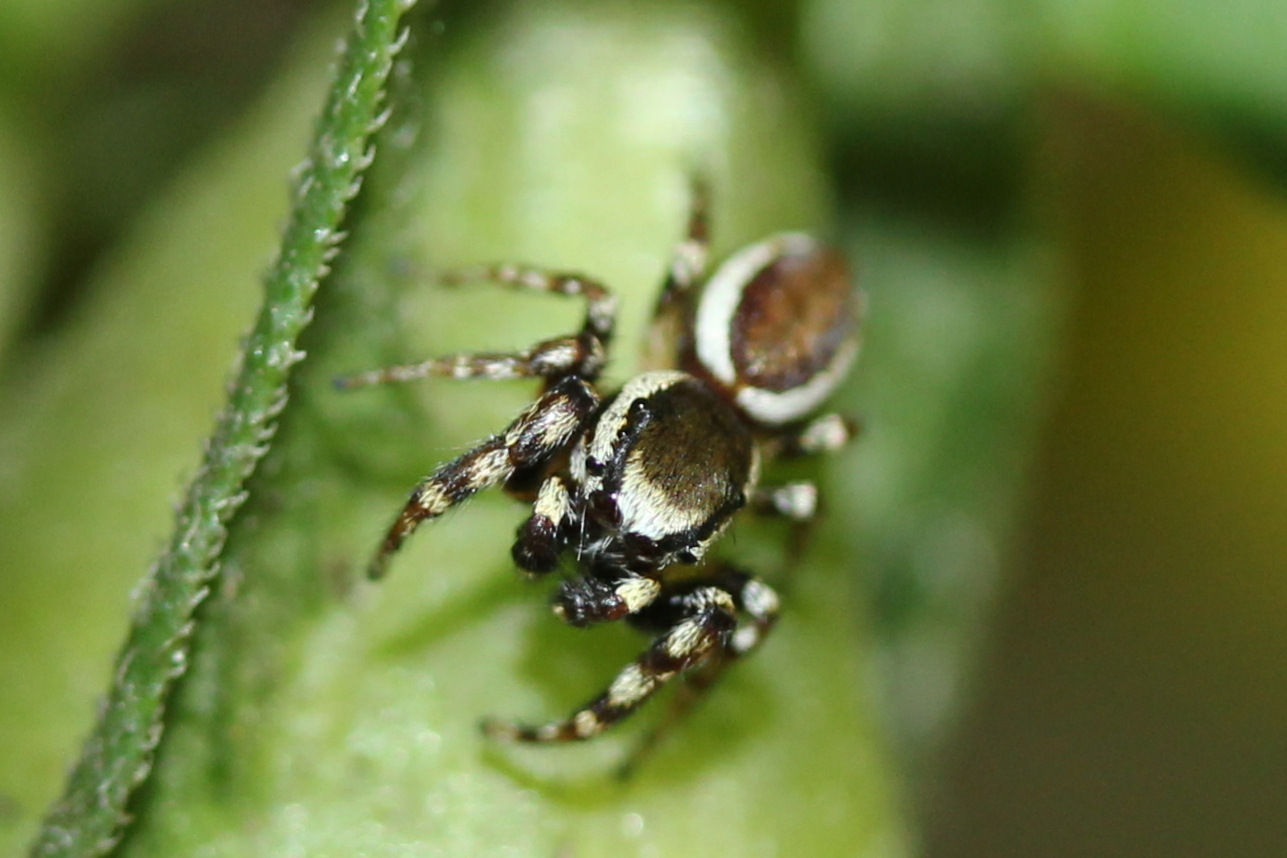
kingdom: Animalia
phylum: Arthropoda
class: Arachnida
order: Araneae
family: Salticidae
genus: Pelegrina
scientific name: Pelegrina proterva
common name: Common white-cheeked jumping spider
